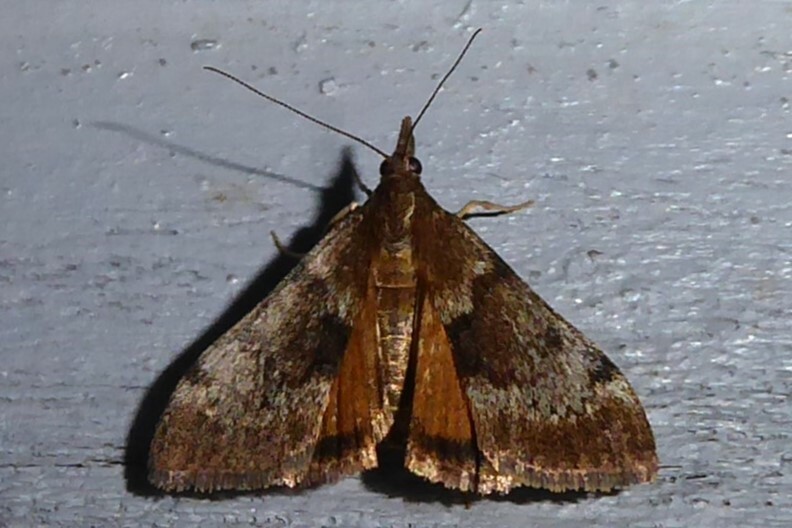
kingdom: Animalia
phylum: Arthropoda
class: Insecta
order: Lepidoptera
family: Crambidae
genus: Uresiphita
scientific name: Uresiphita
